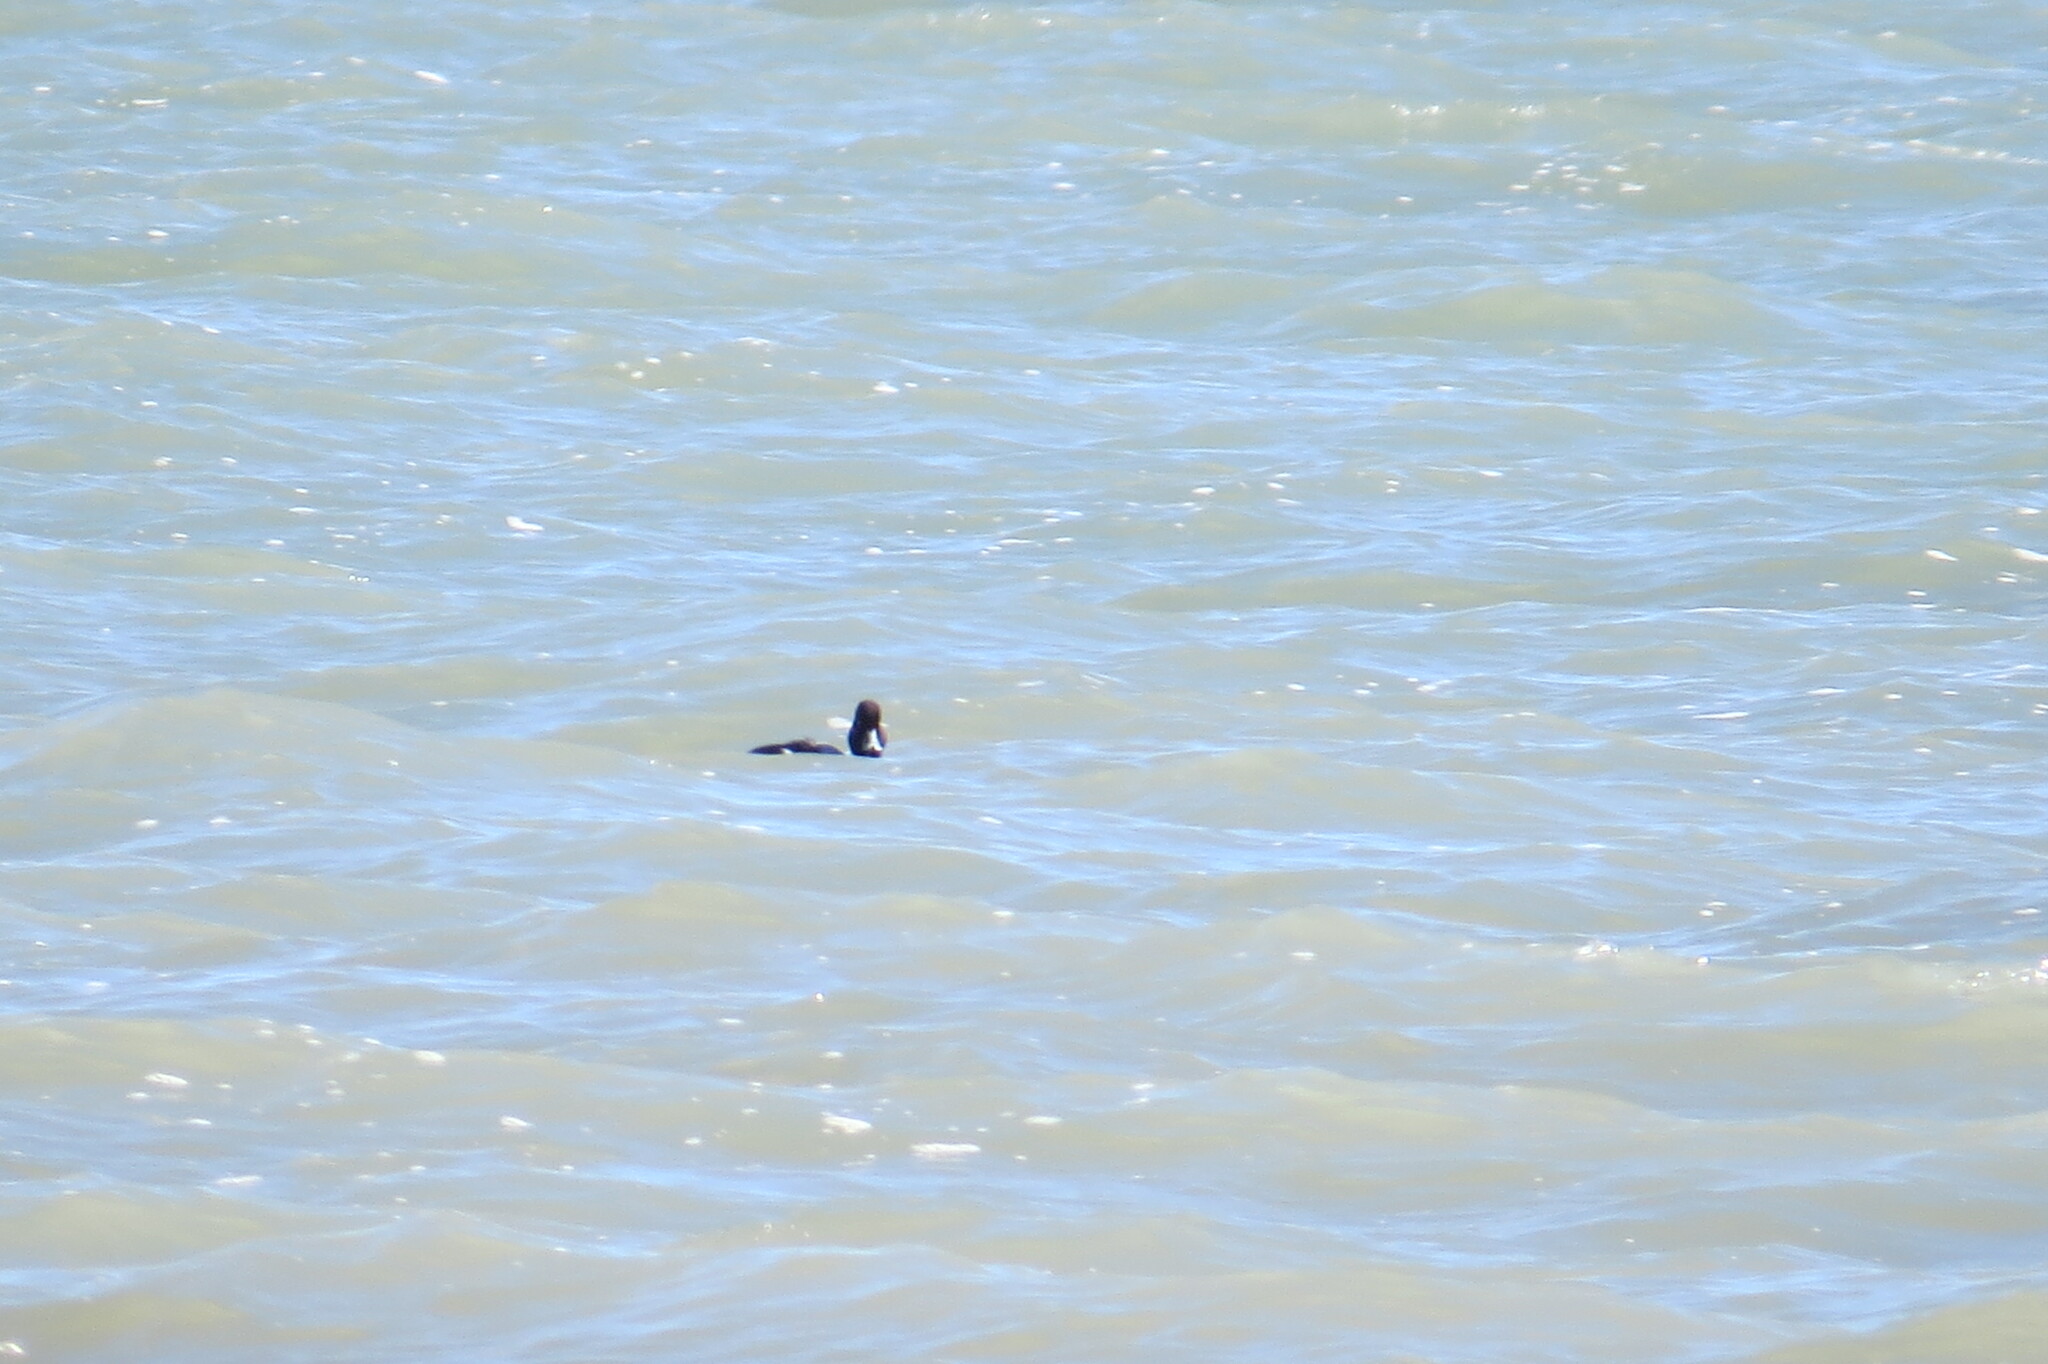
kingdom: Animalia
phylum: Chordata
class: Aves
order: Anseriformes
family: Anatidae
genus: Bucephala
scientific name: Bucephala clangula
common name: Common goldeneye
